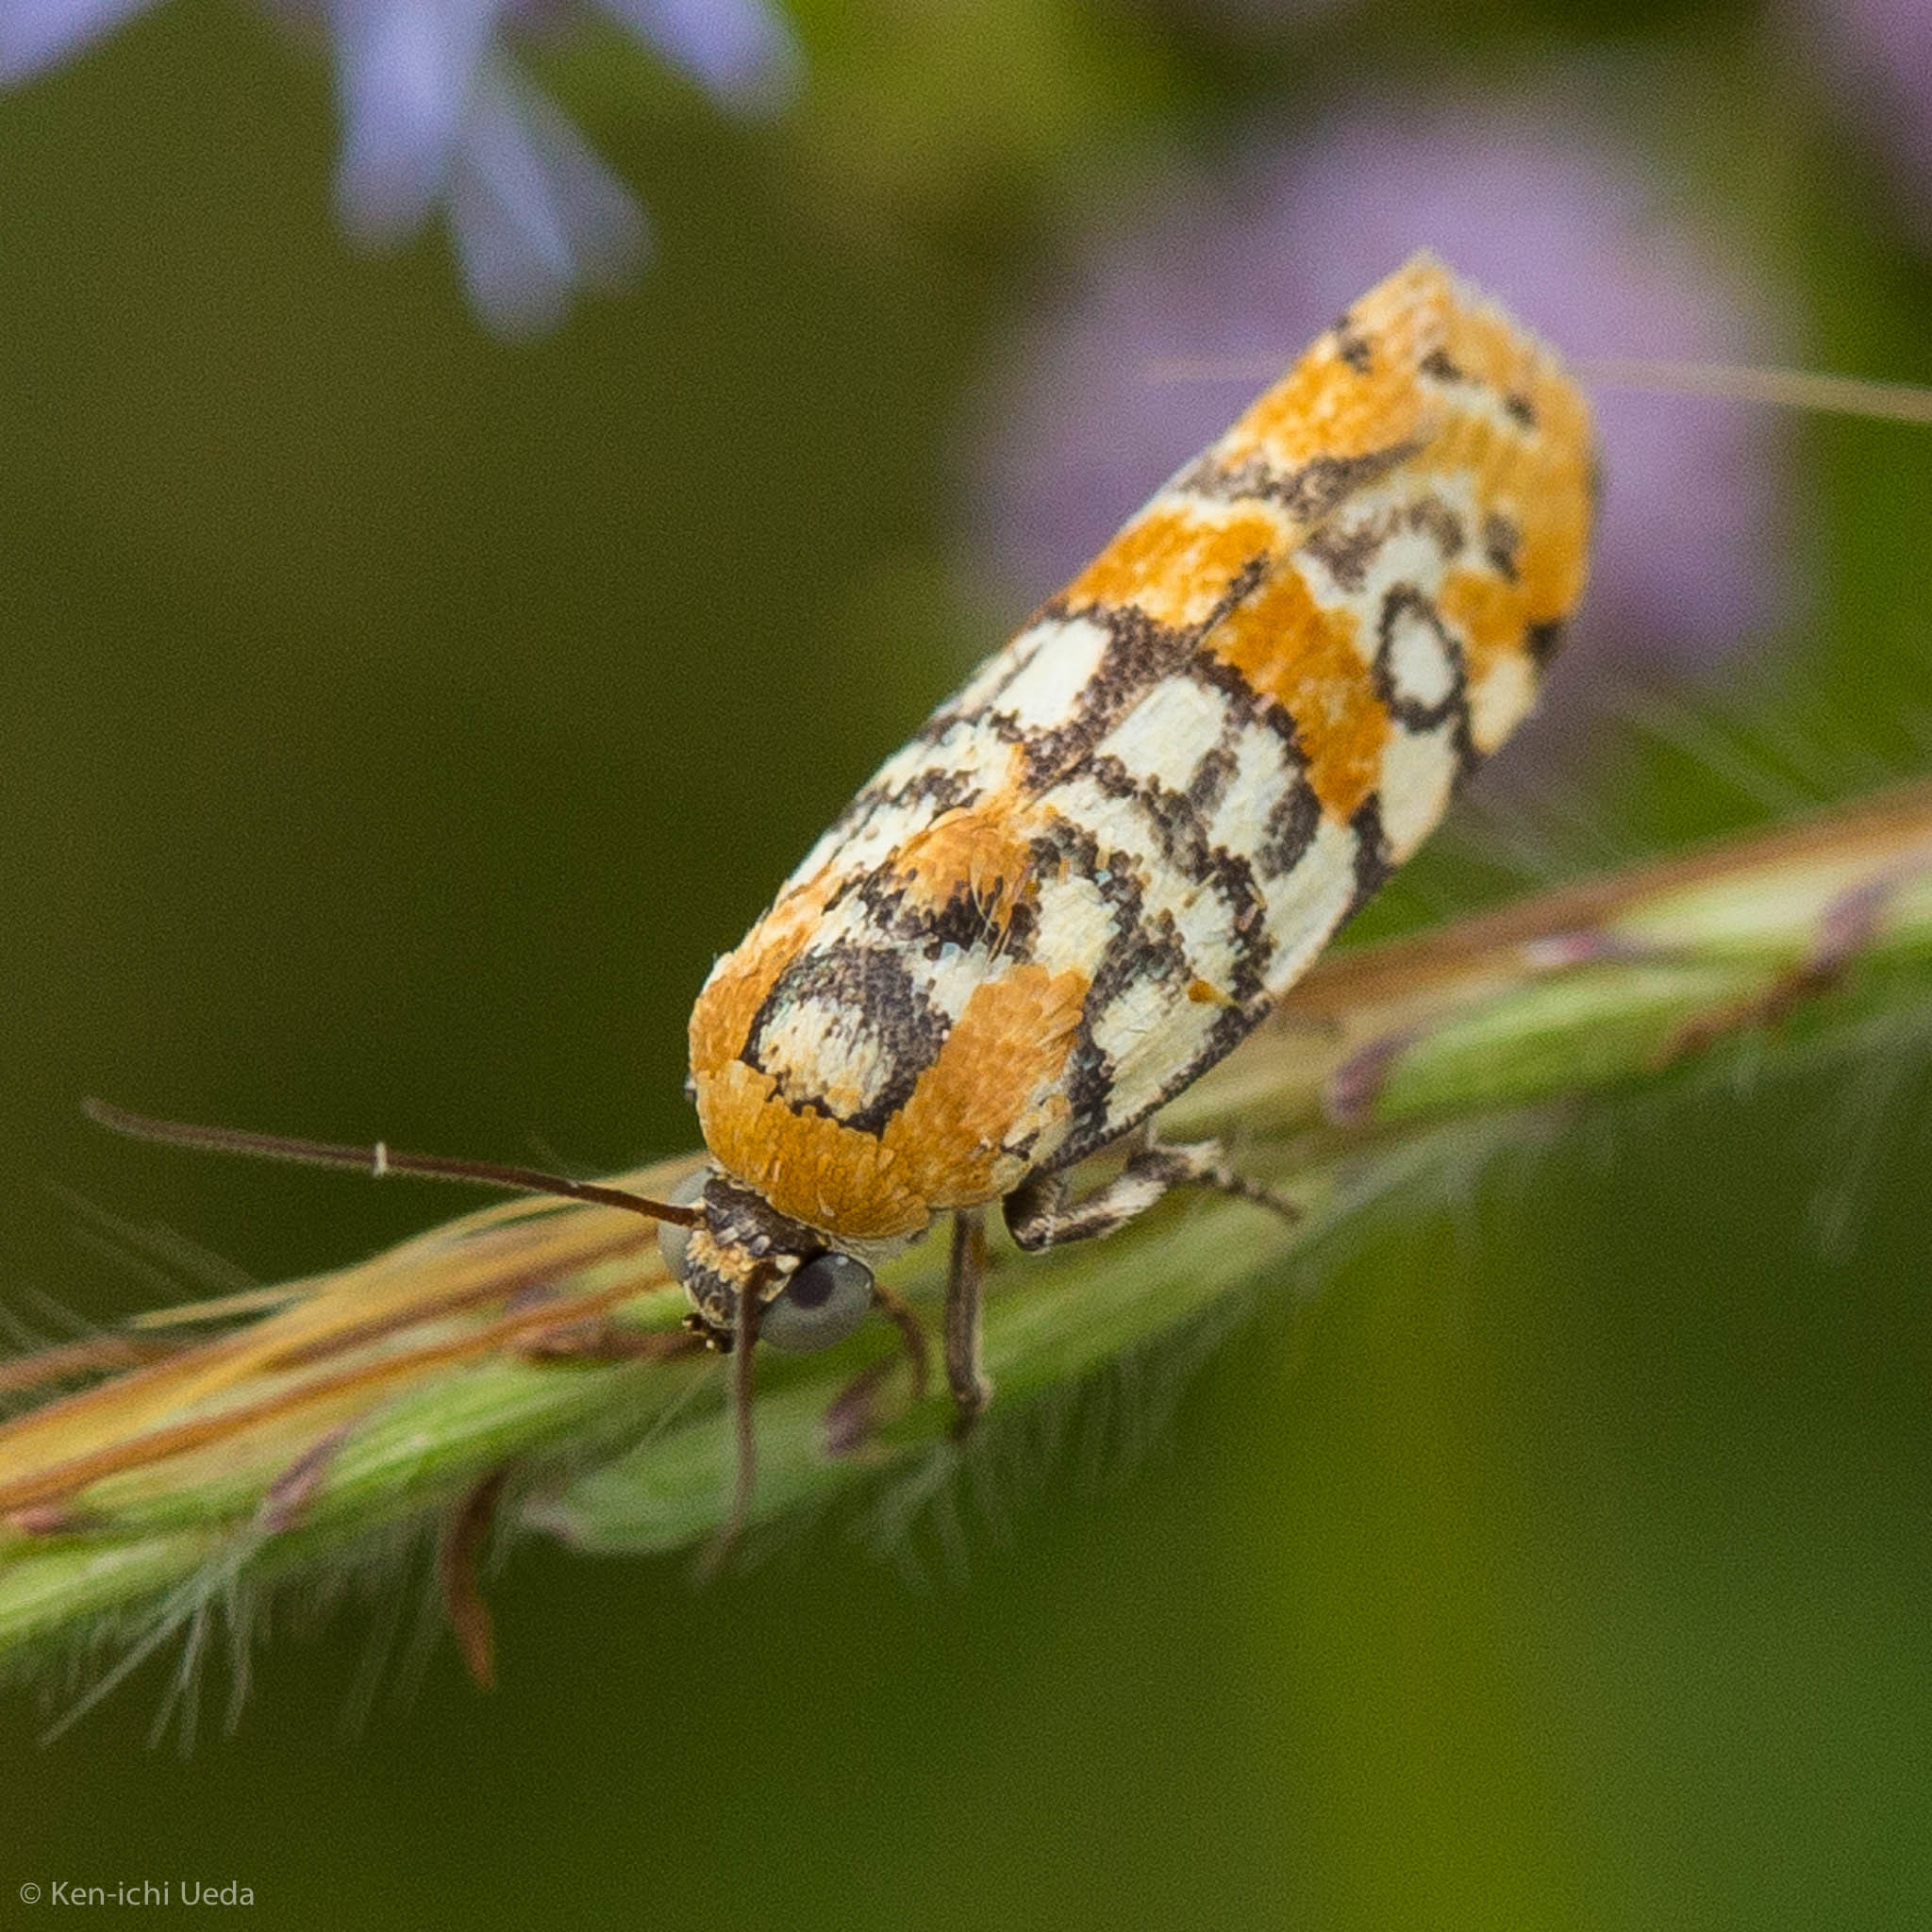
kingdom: Animalia
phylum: Arthropoda
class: Insecta
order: Lepidoptera
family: Noctuidae
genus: Spragueia
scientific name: Spragueia guttata
